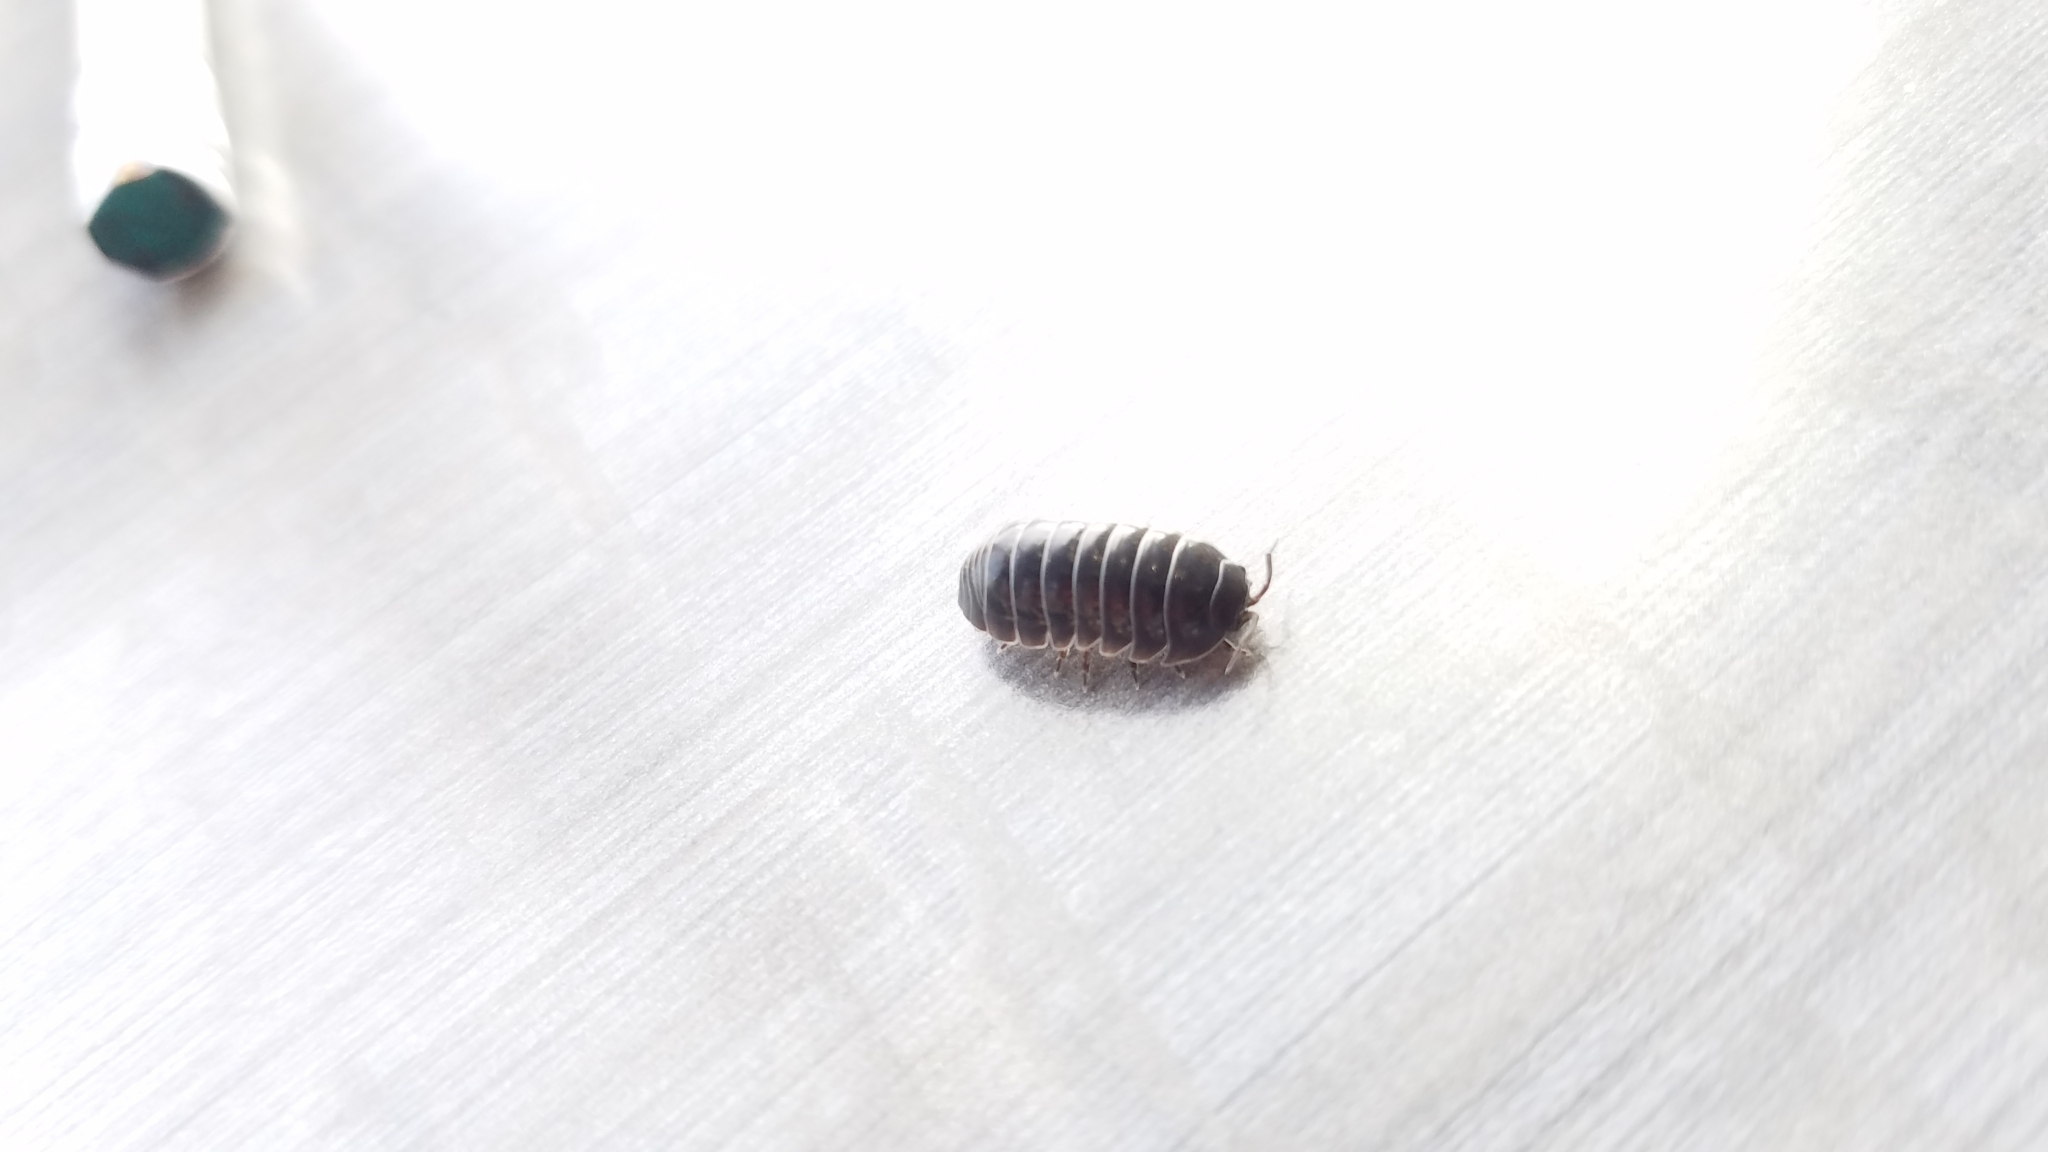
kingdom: Animalia
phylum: Arthropoda
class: Malacostraca
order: Isopoda
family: Armadillidiidae
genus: Armadillidium
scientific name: Armadillidium vulgare
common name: Common pill woodlouse
